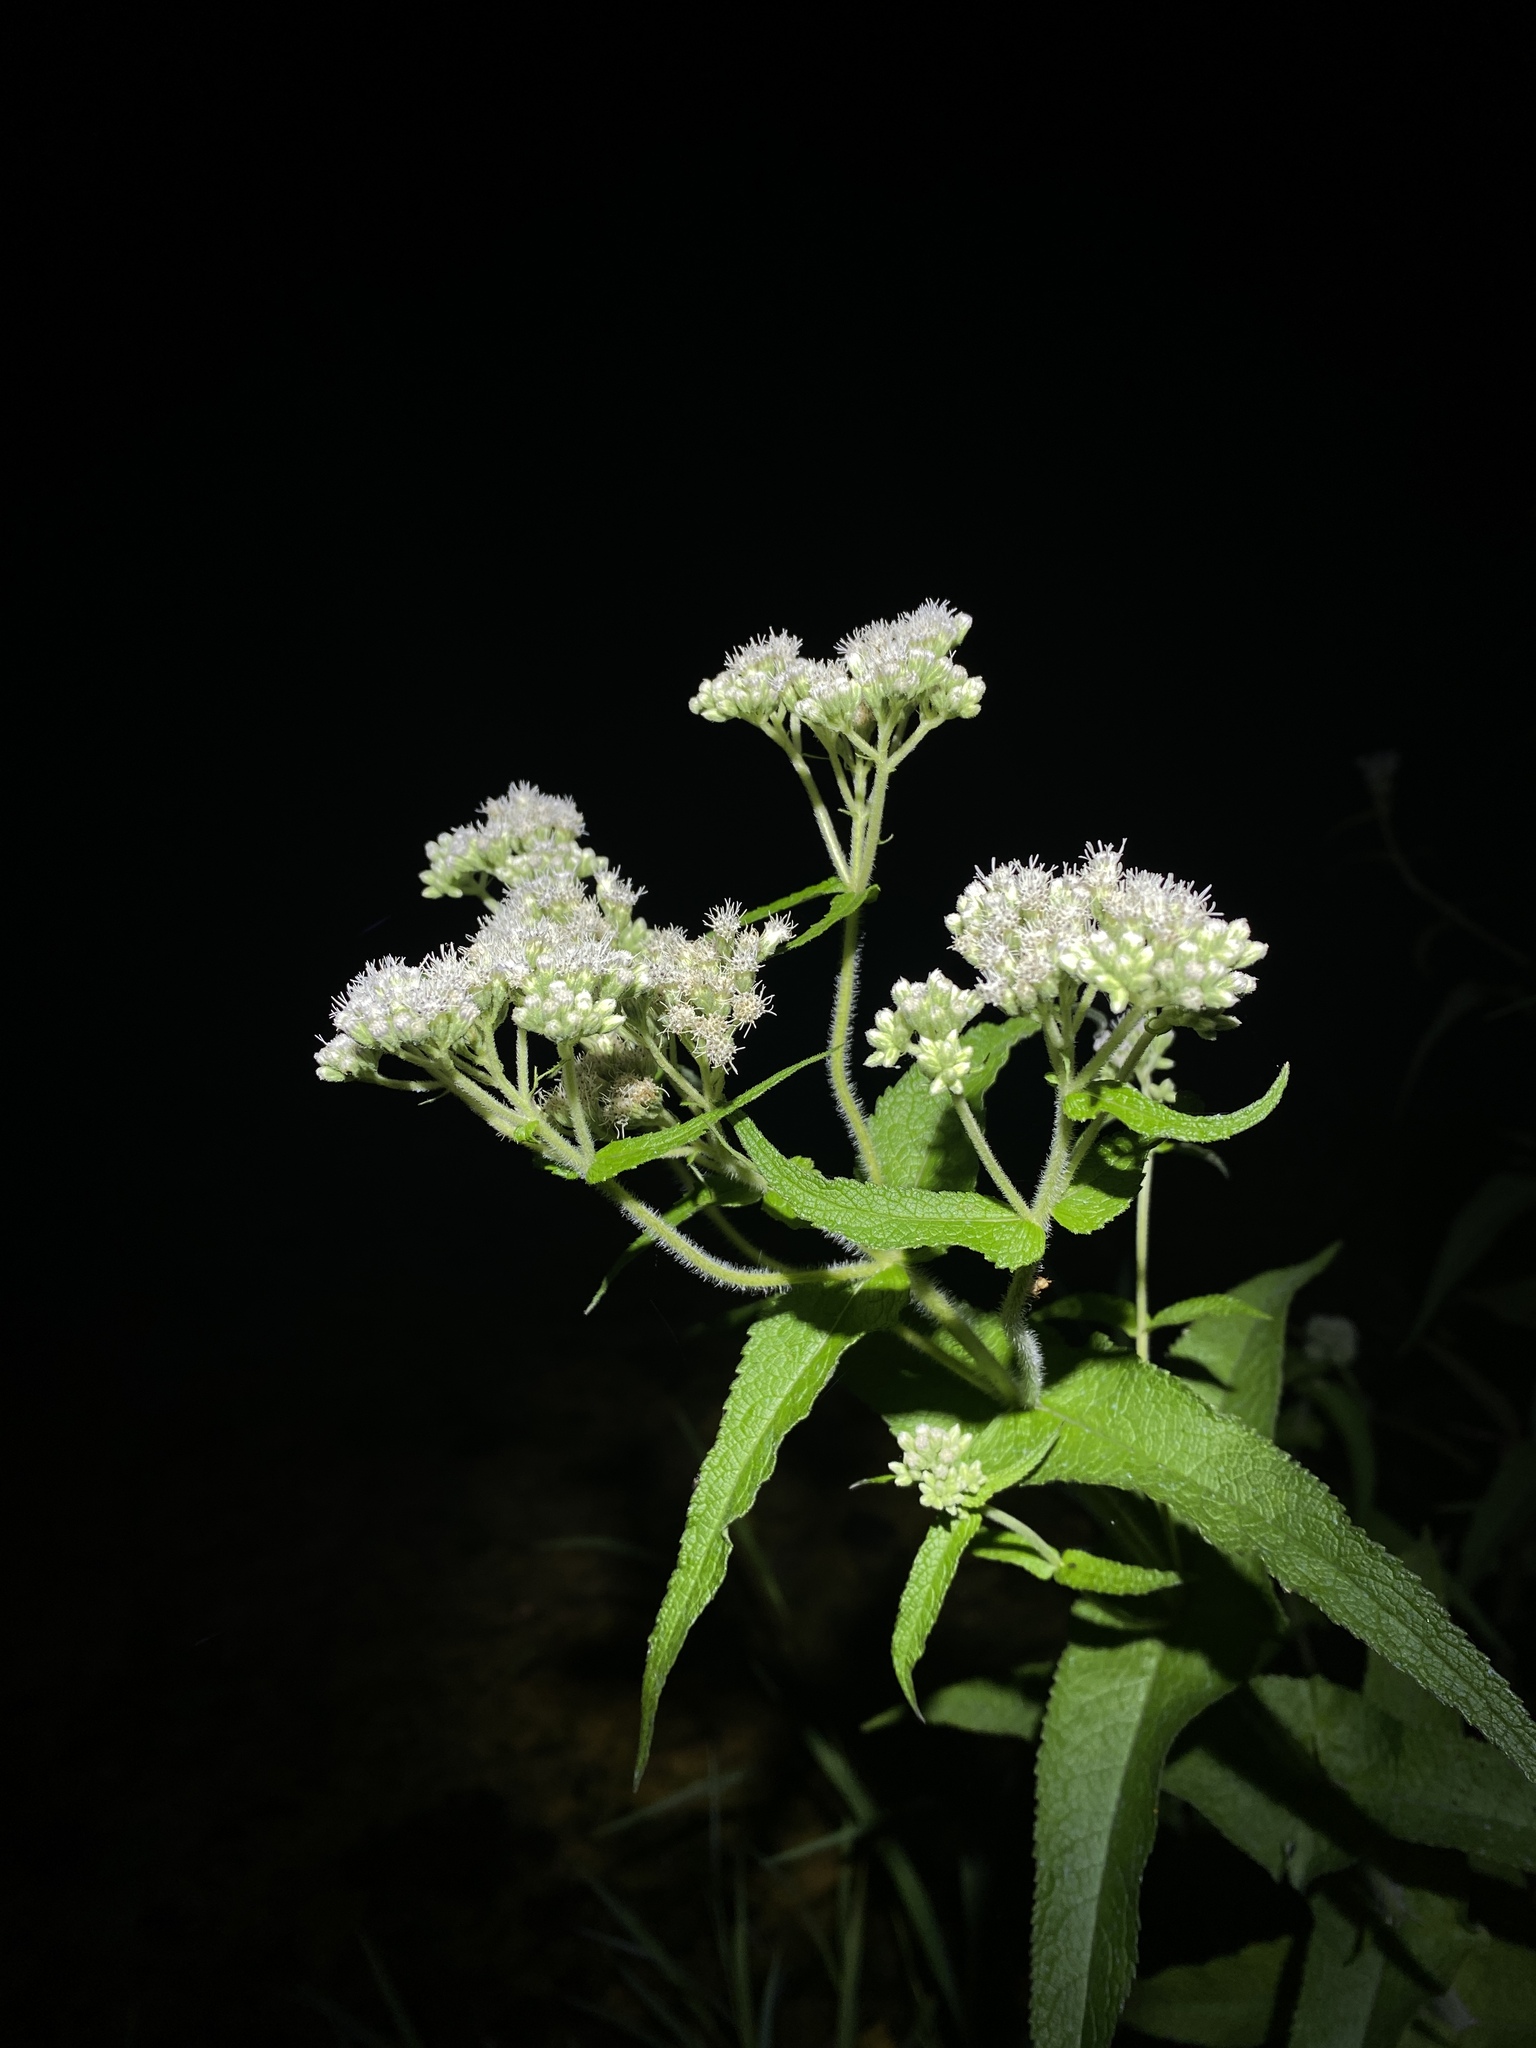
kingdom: Plantae
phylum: Tracheophyta
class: Magnoliopsida
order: Asterales
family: Asteraceae
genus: Eupatorium
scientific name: Eupatorium perfoliatum
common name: Boneset
